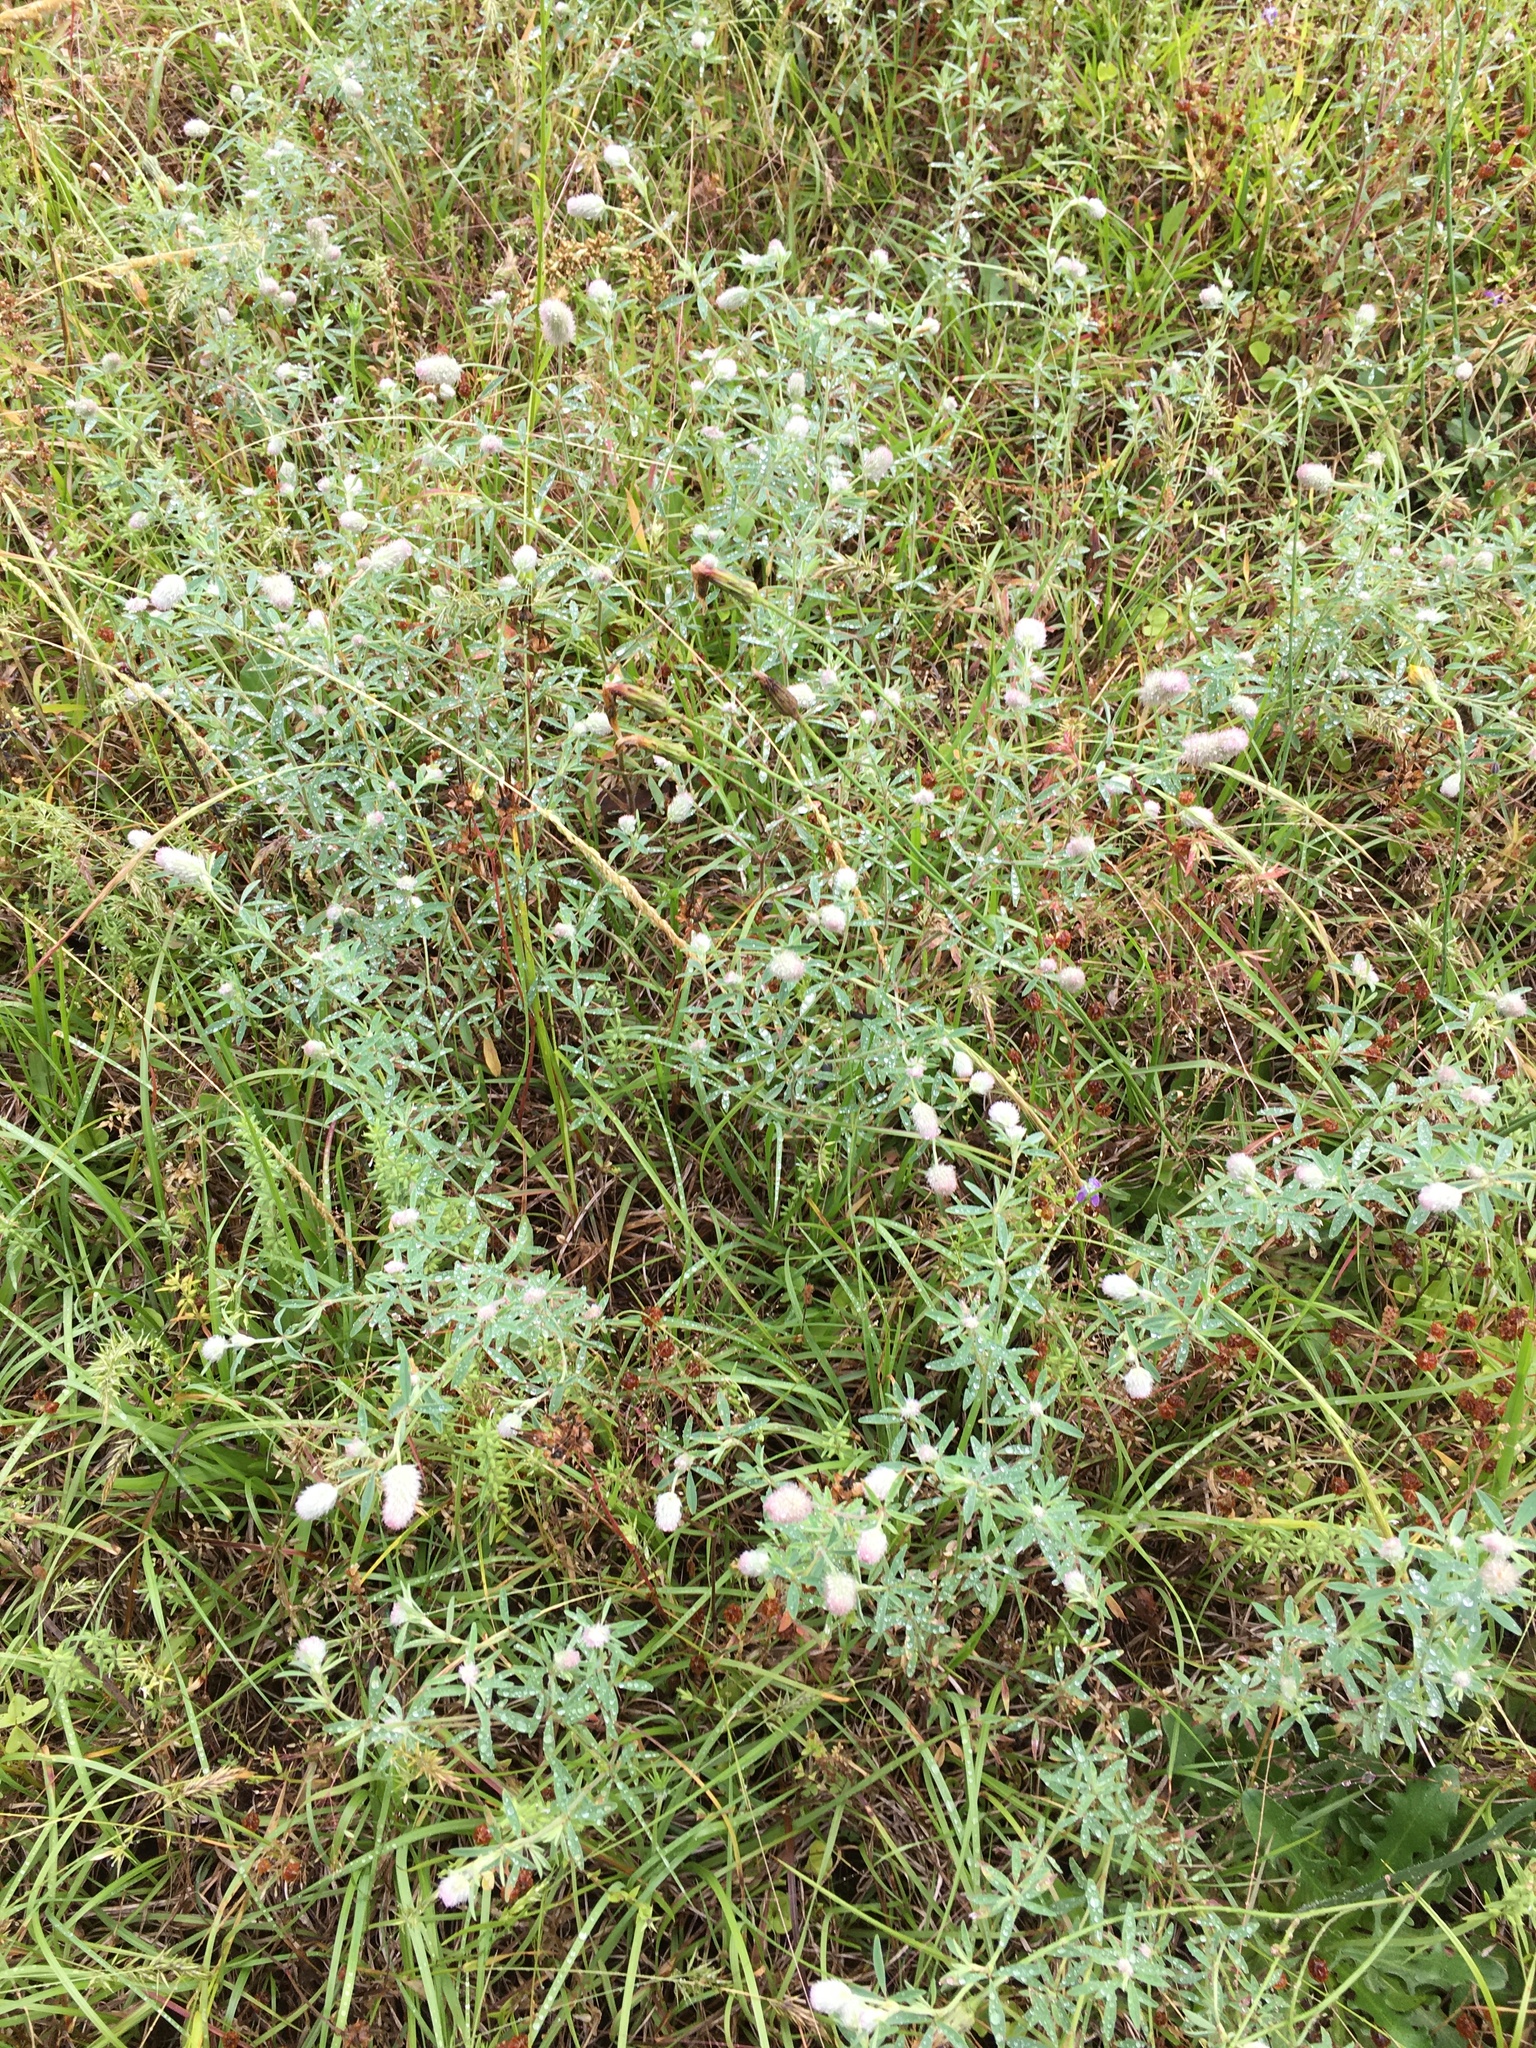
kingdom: Plantae
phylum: Tracheophyta
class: Magnoliopsida
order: Fabales
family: Fabaceae
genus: Trifolium
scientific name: Trifolium arvense
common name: Hare's-foot clover
